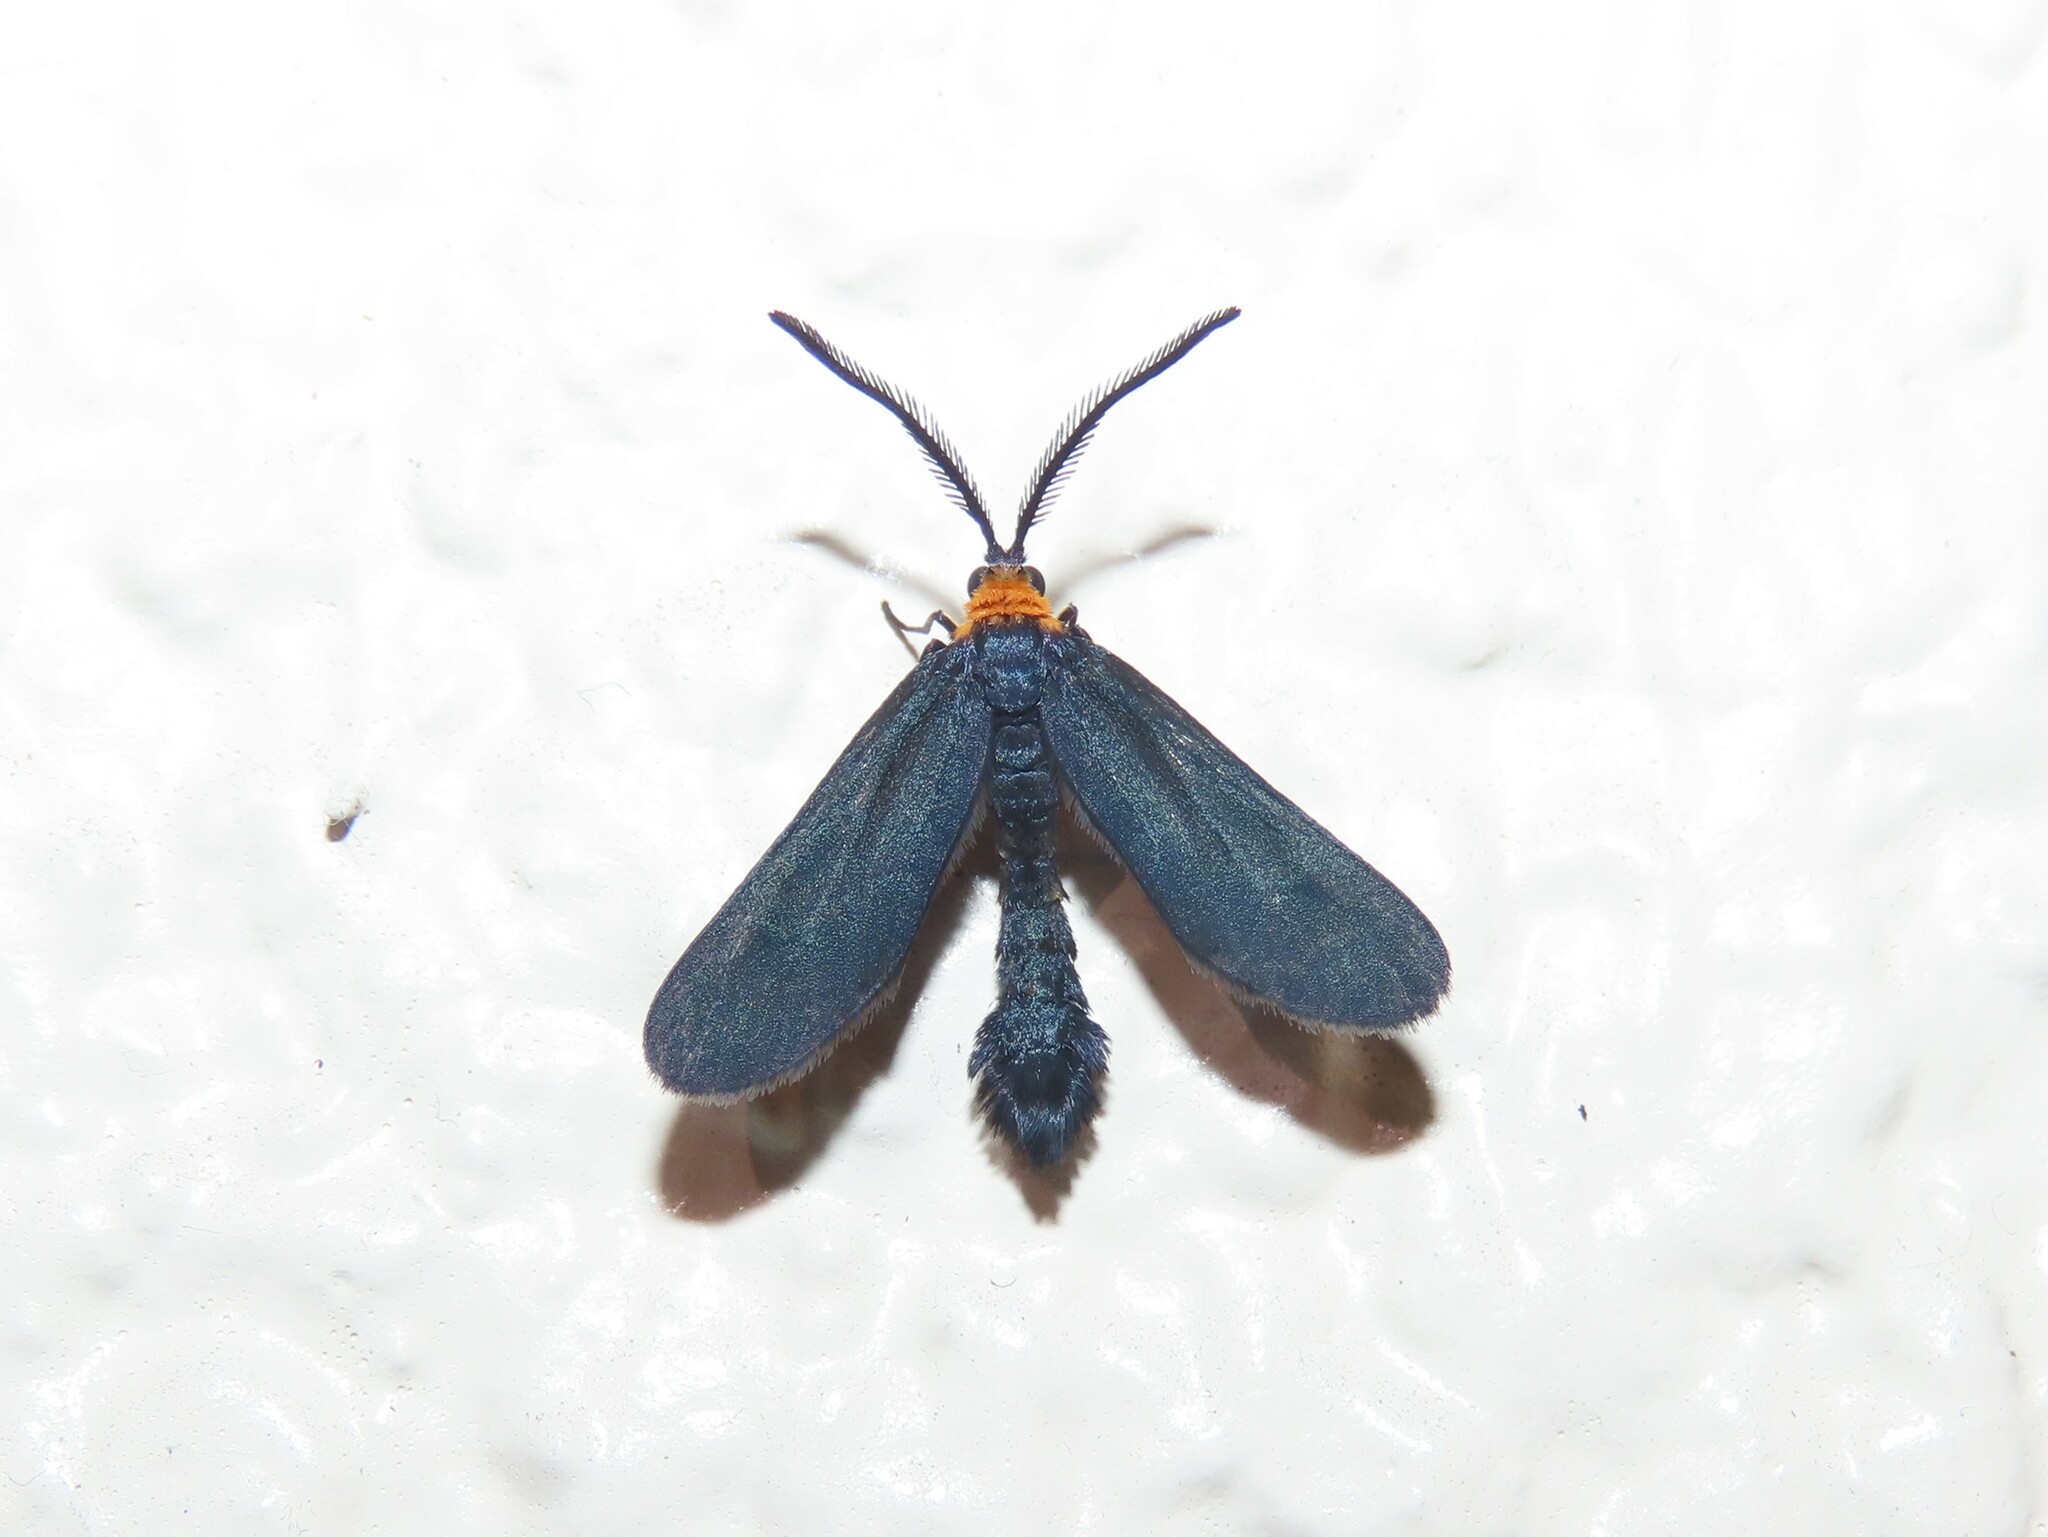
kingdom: Animalia
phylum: Arthropoda
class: Insecta
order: Lepidoptera
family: Zygaenidae
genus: Harrisina
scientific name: Harrisina americana
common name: Grapeleaf skeletonizer moth
